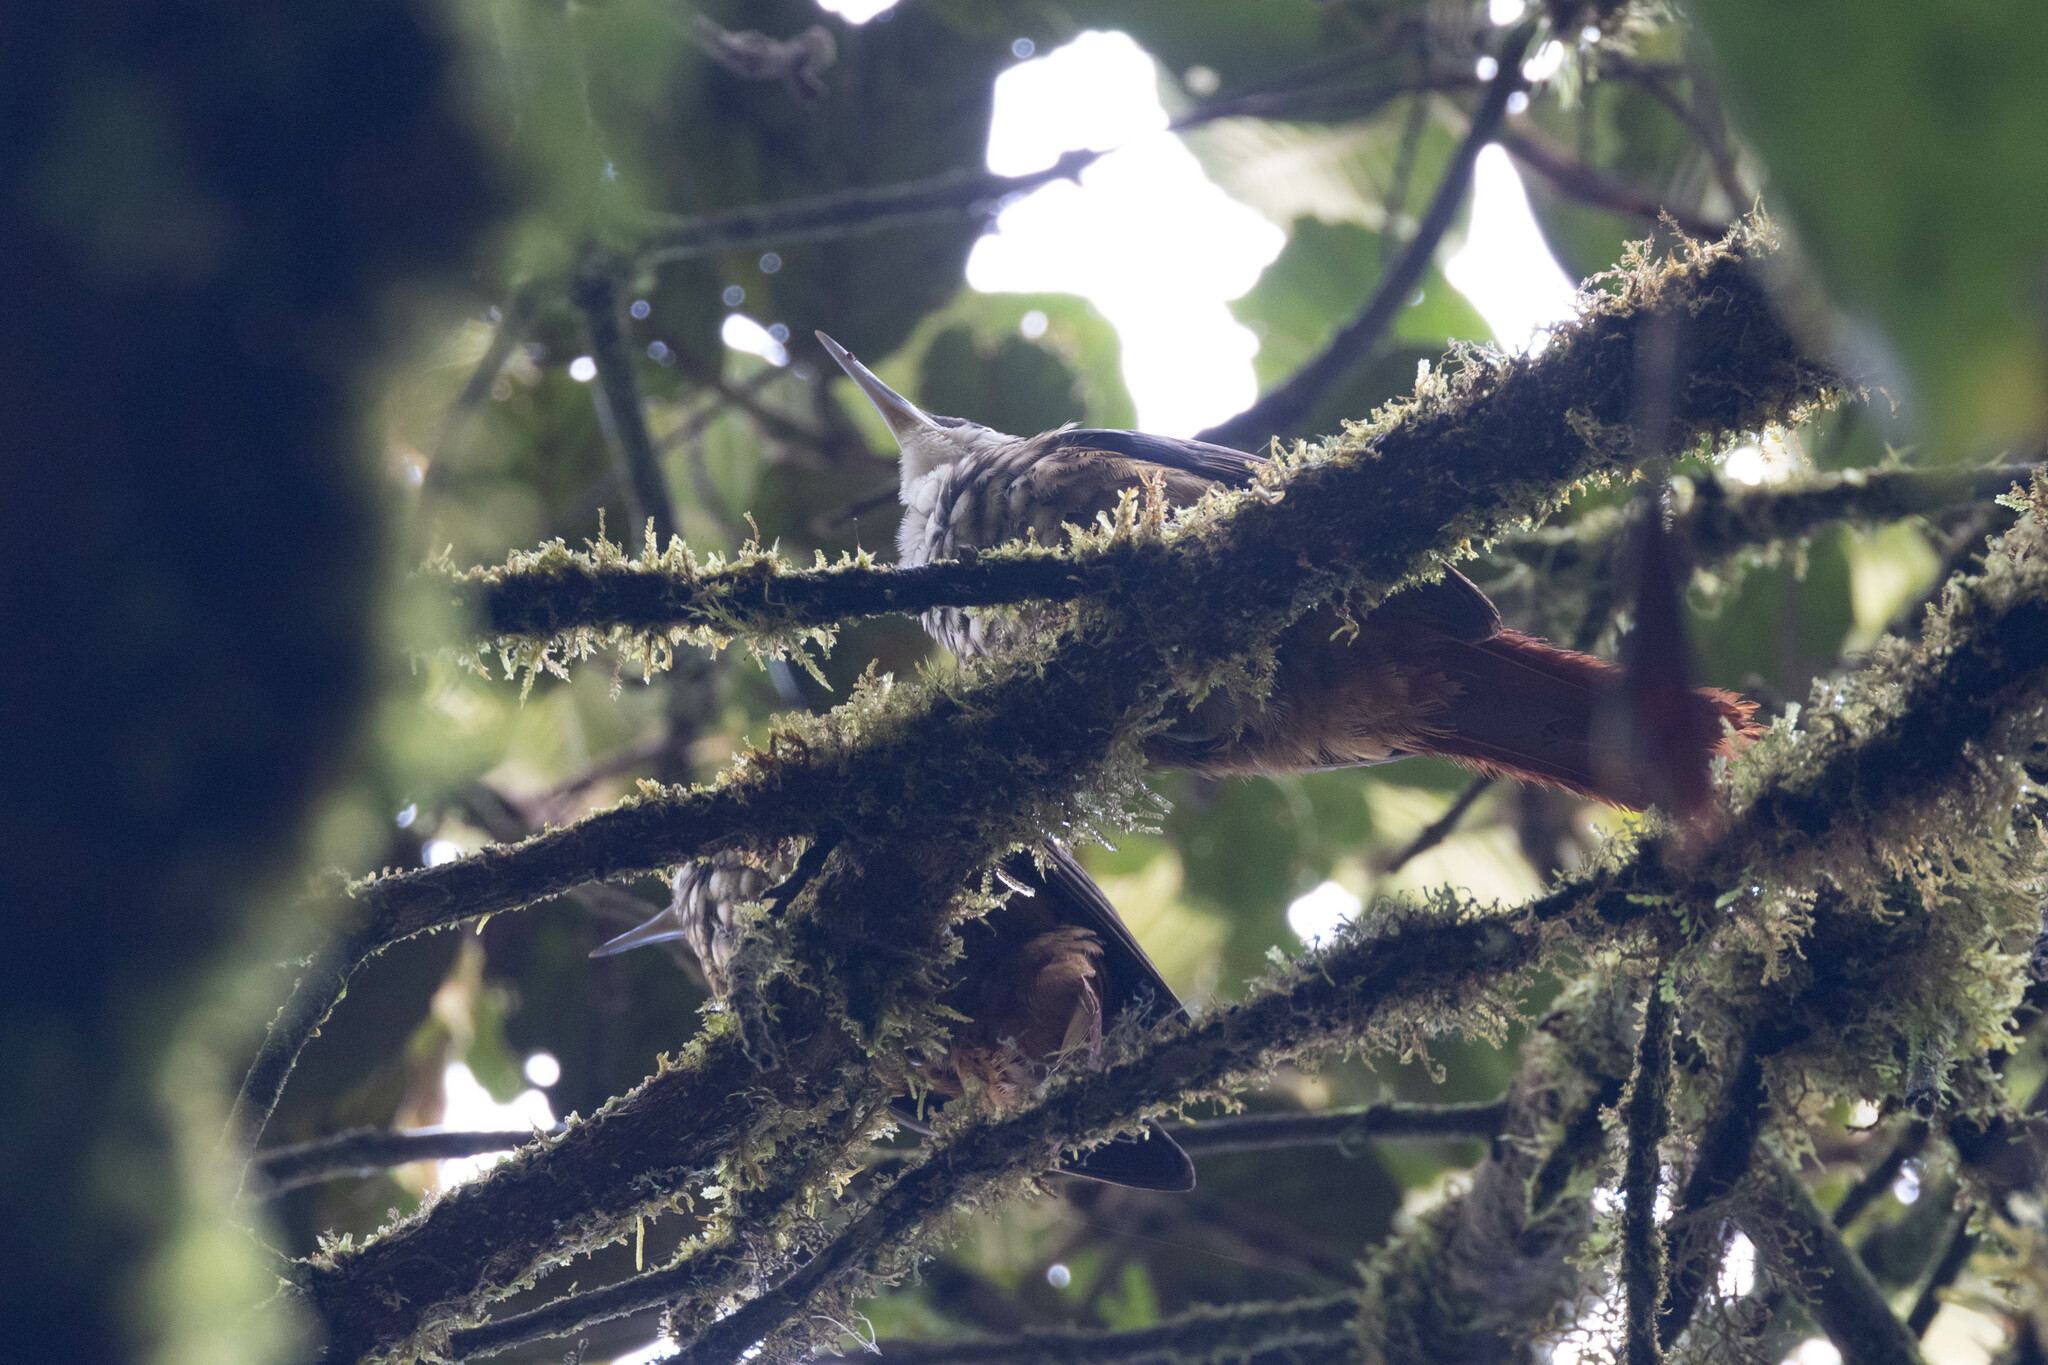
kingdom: Animalia
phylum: Chordata
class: Aves
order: Passeriformes
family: Furnariidae
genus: Pseudocolaptes
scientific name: Pseudocolaptes boissonneautii
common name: Streaked tuftedcheek
